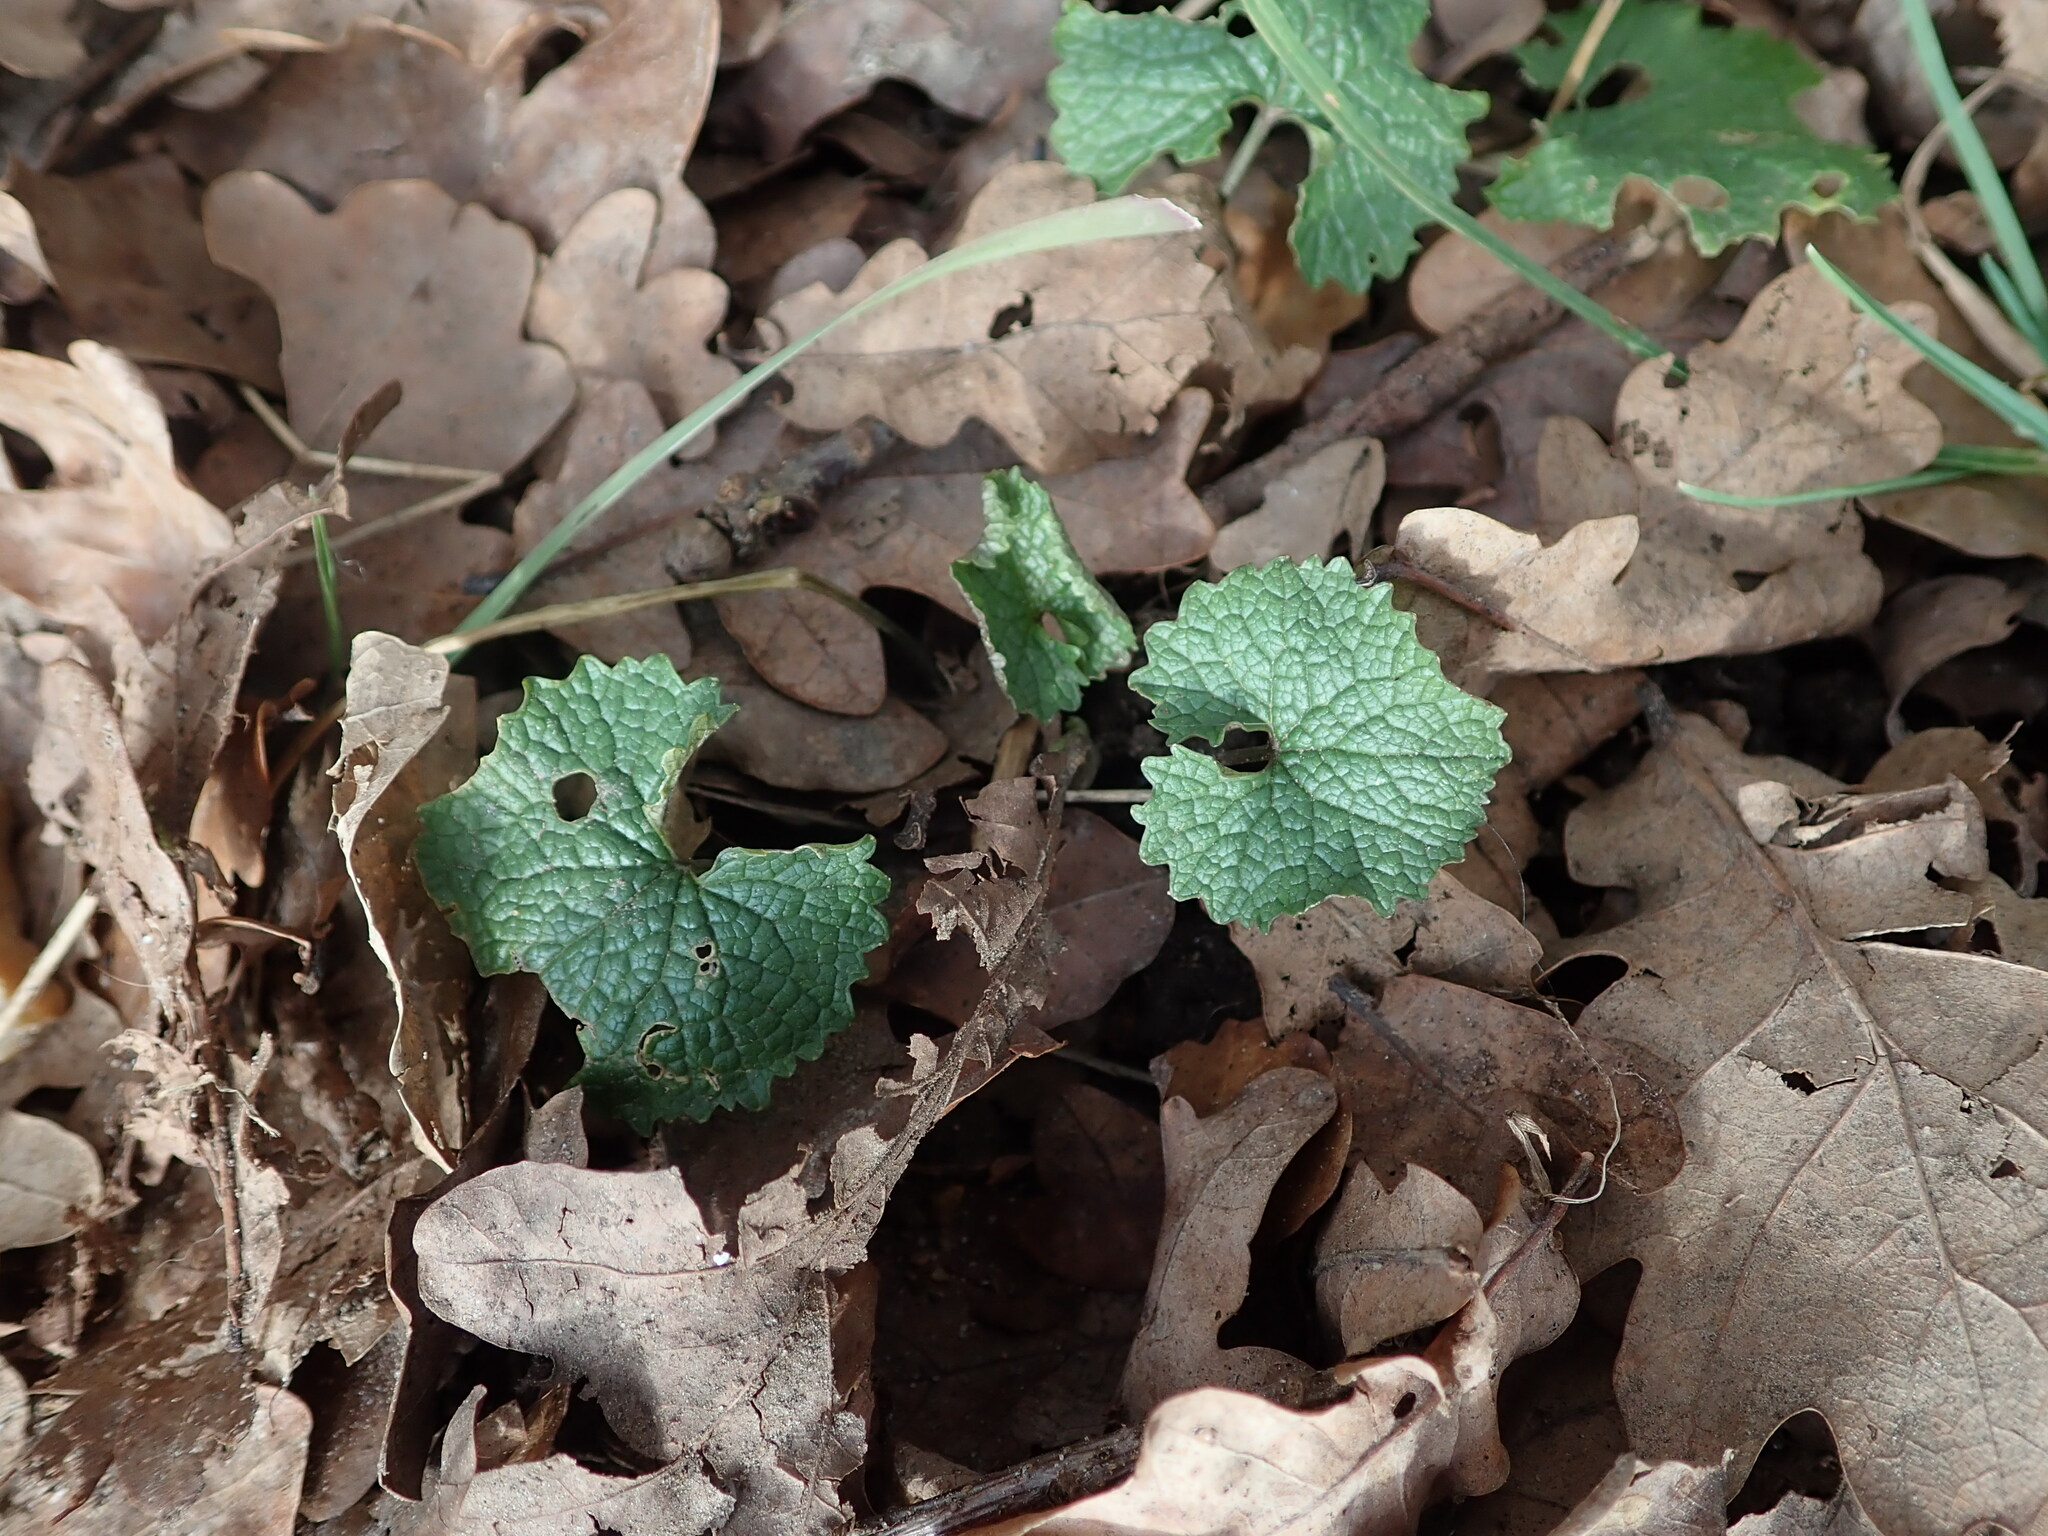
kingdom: Plantae
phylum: Tracheophyta
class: Magnoliopsida
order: Brassicales
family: Brassicaceae
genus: Alliaria
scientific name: Alliaria petiolata
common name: Garlic mustard
